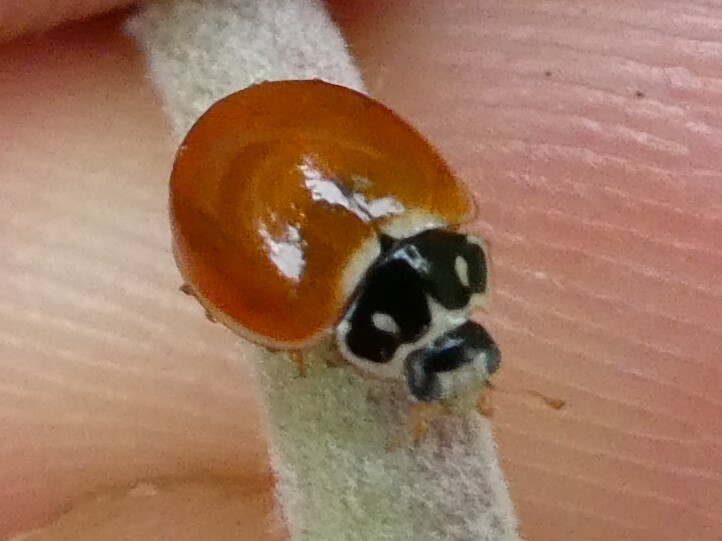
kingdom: Animalia
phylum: Arthropoda
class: Insecta
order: Coleoptera
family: Coccinellidae
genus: Cycloneda
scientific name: Cycloneda munda
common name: Polished lady beetle
